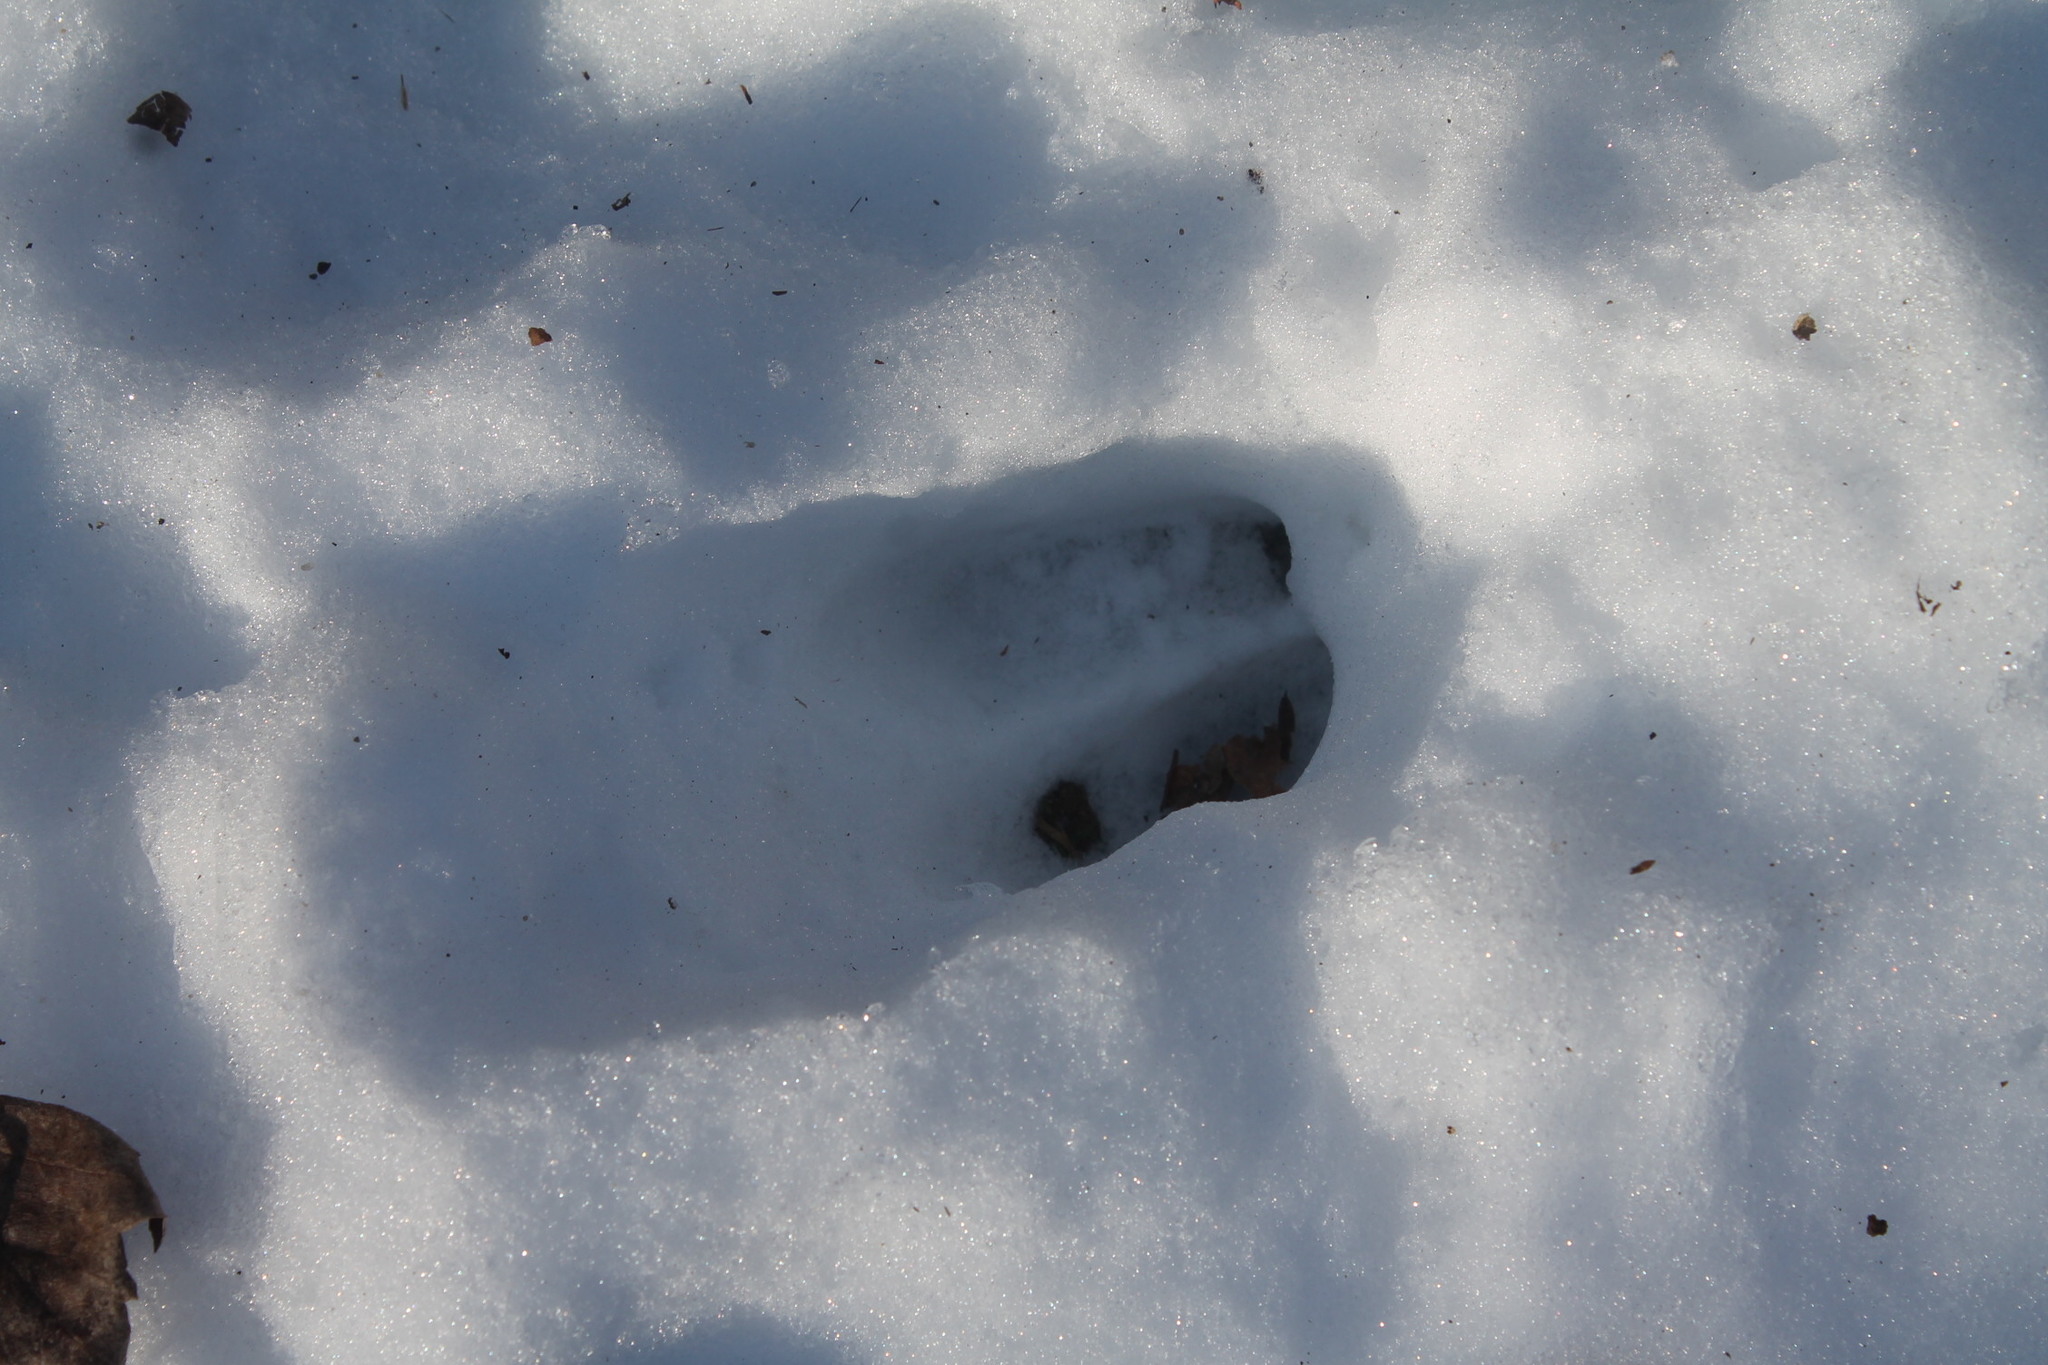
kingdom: Animalia
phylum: Chordata
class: Mammalia
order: Artiodactyla
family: Cervidae
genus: Odocoileus
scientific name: Odocoileus virginianus
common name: White-tailed deer
